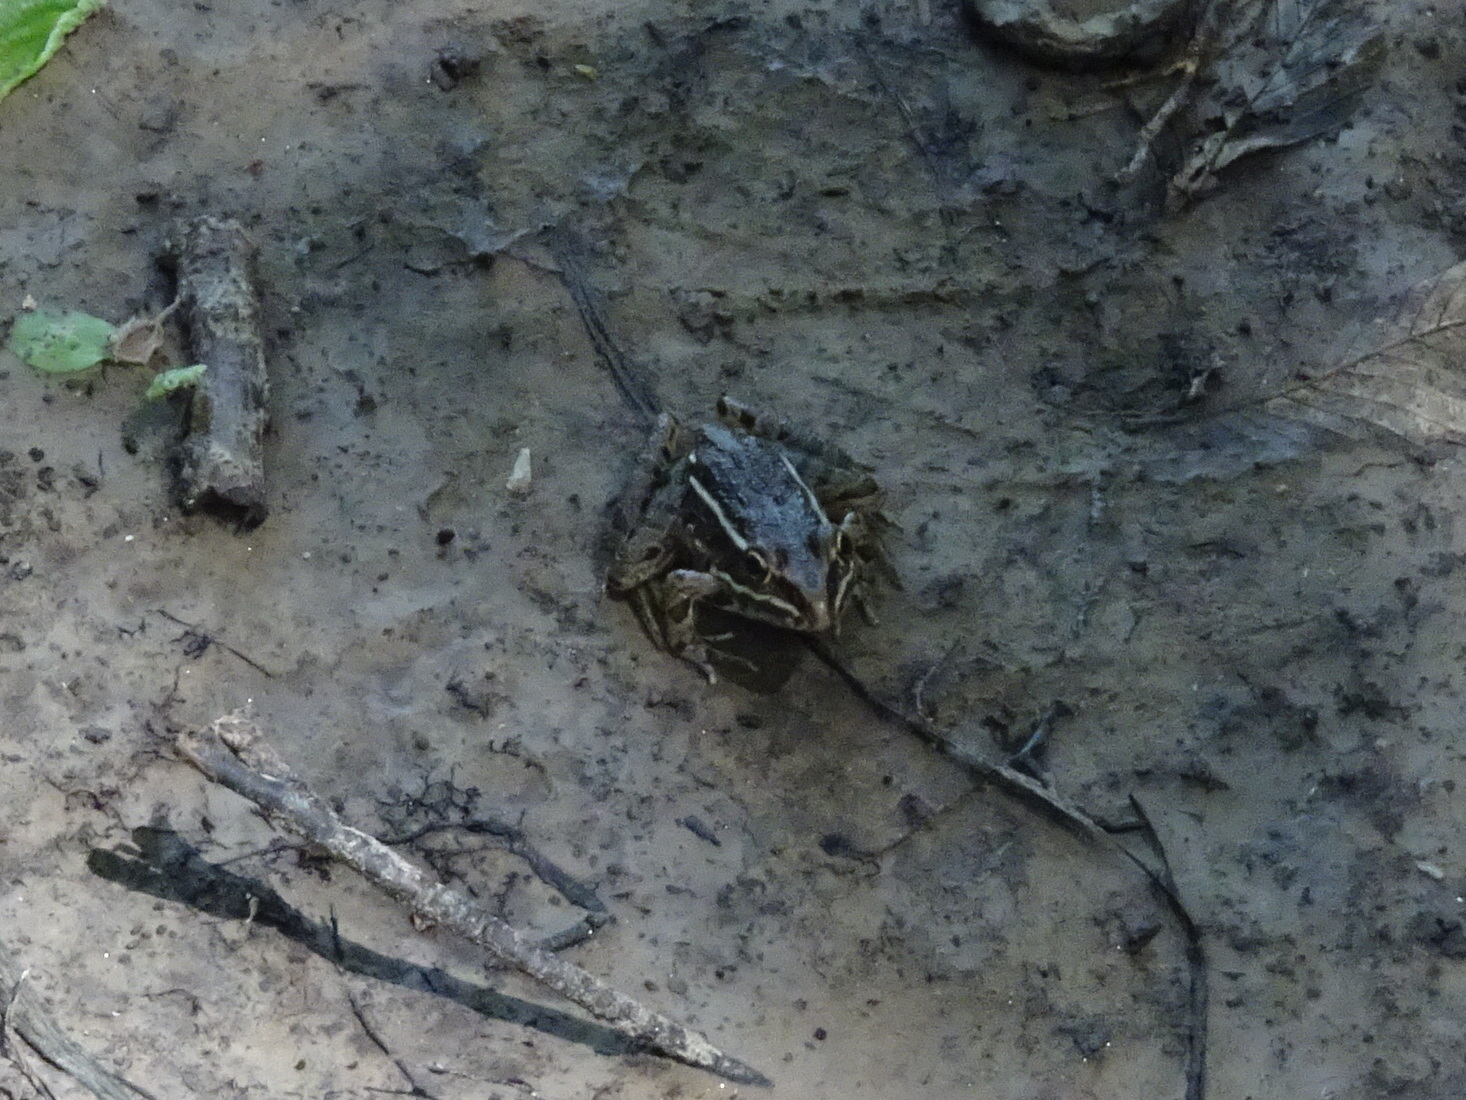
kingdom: Animalia
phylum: Chordata
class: Amphibia
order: Anura
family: Ranidae
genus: Lithobates
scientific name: Lithobates blairi
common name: Plains leopard frog
